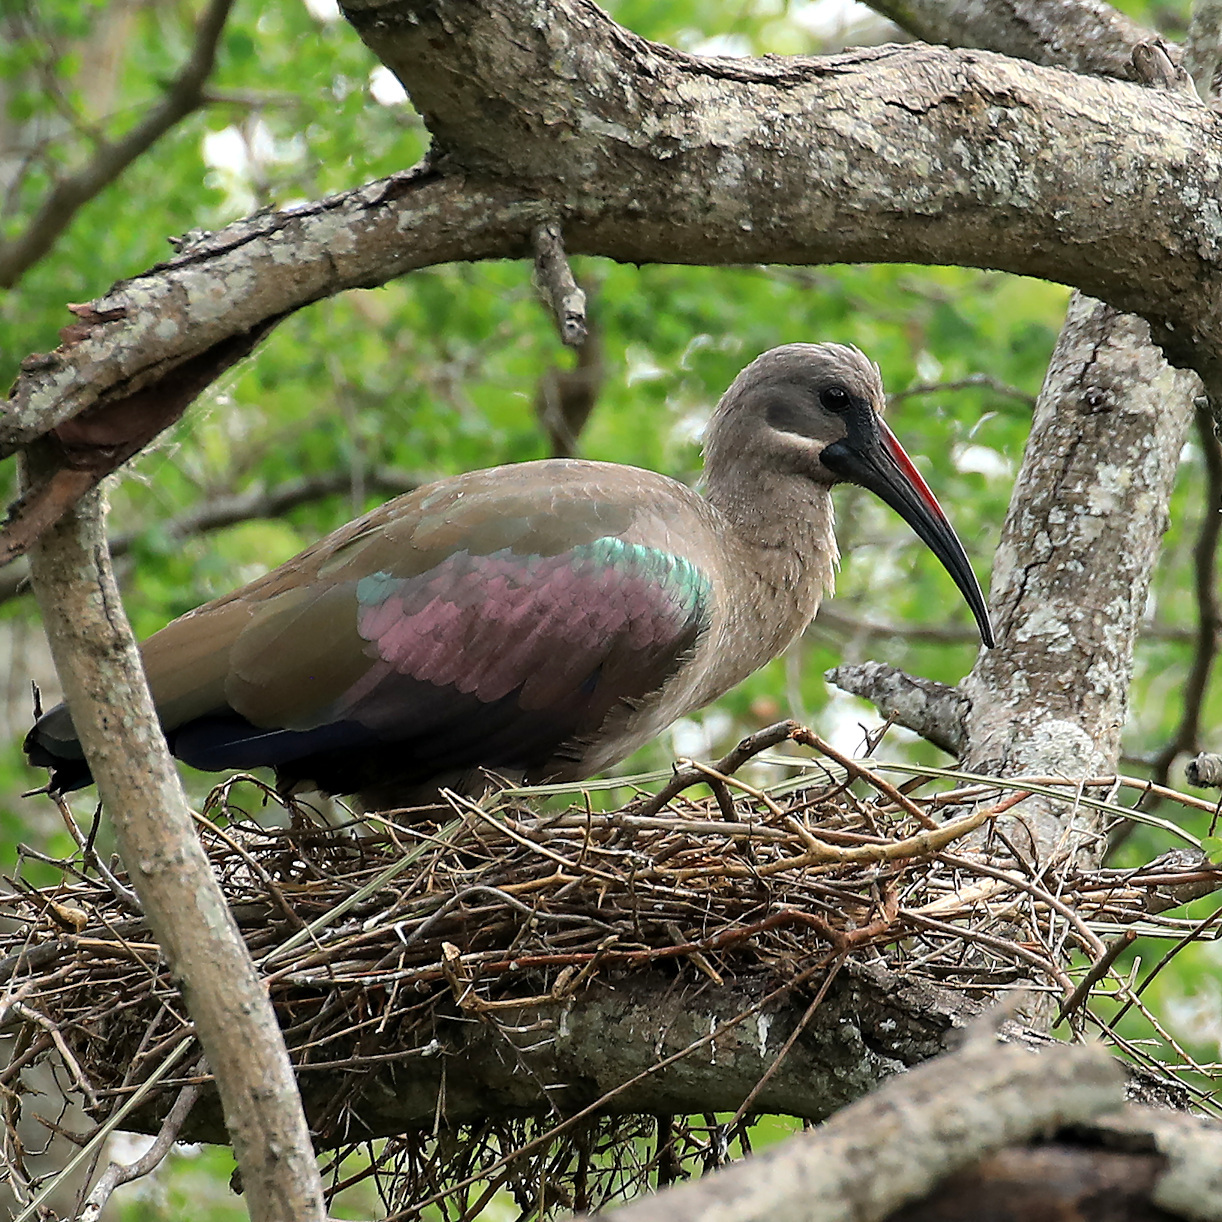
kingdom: Animalia
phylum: Chordata
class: Aves
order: Pelecaniformes
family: Threskiornithidae
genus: Bostrychia
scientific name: Bostrychia hagedash
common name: Hadada ibis
